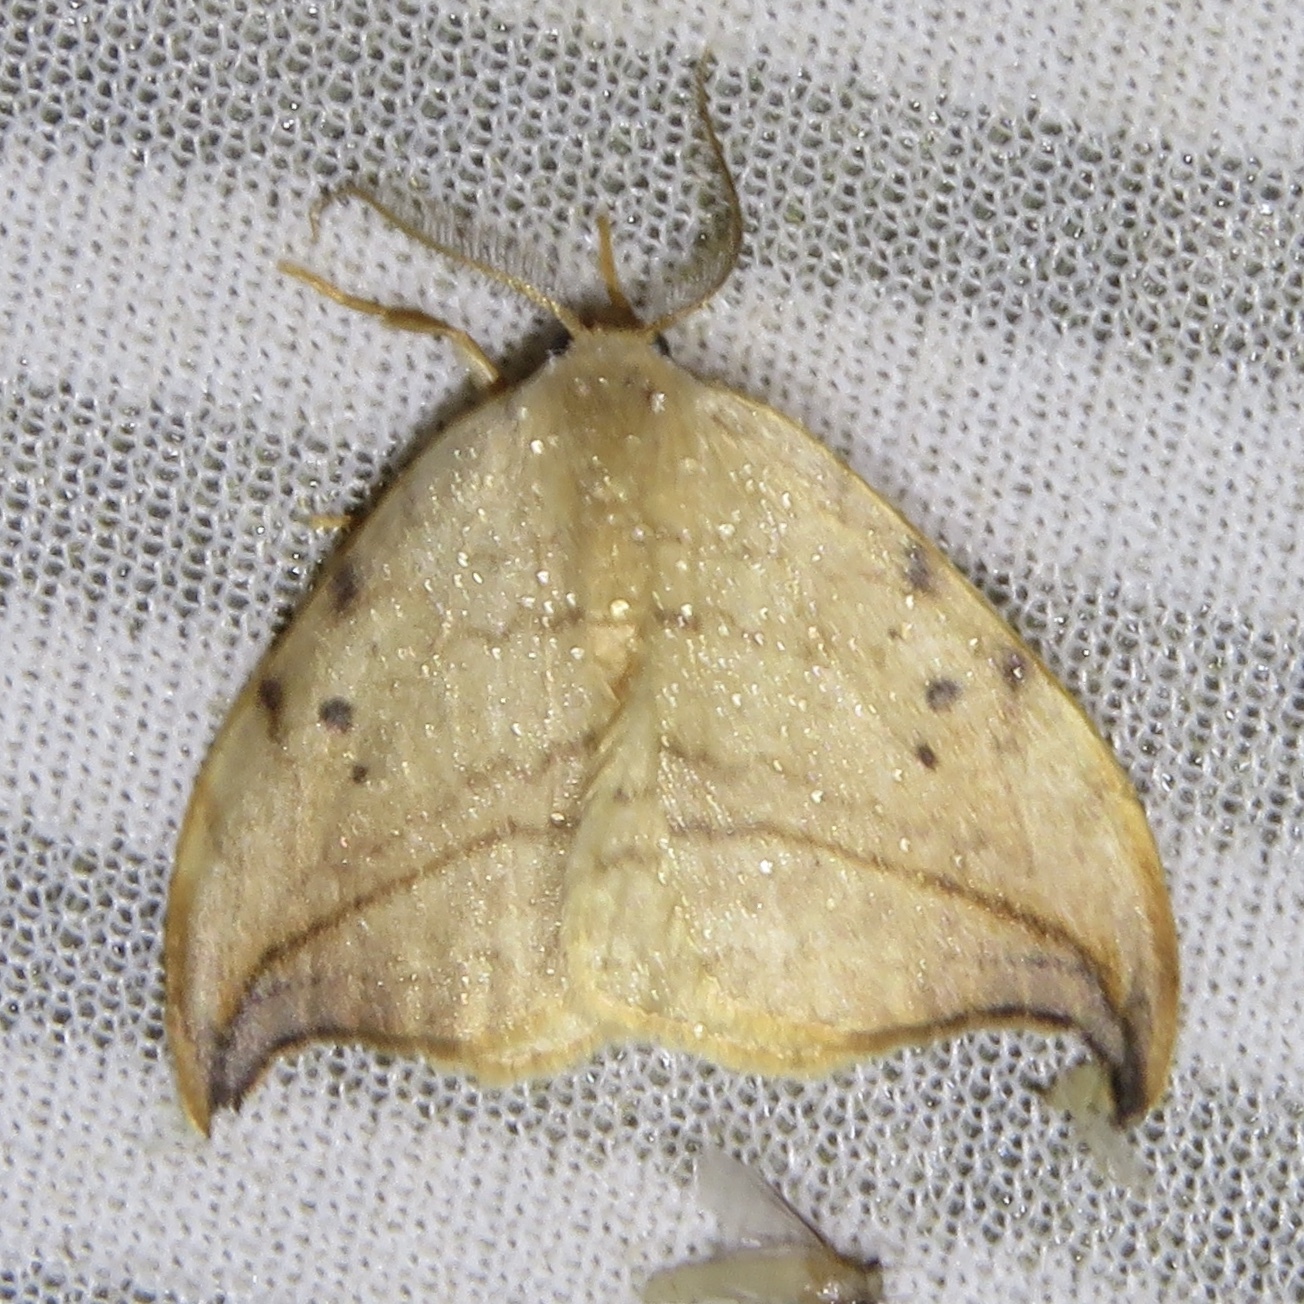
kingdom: Animalia
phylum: Arthropoda
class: Insecta
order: Lepidoptera
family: Drepanidae
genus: Drepana
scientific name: Drepana arcuata
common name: Arched hooktip moth
